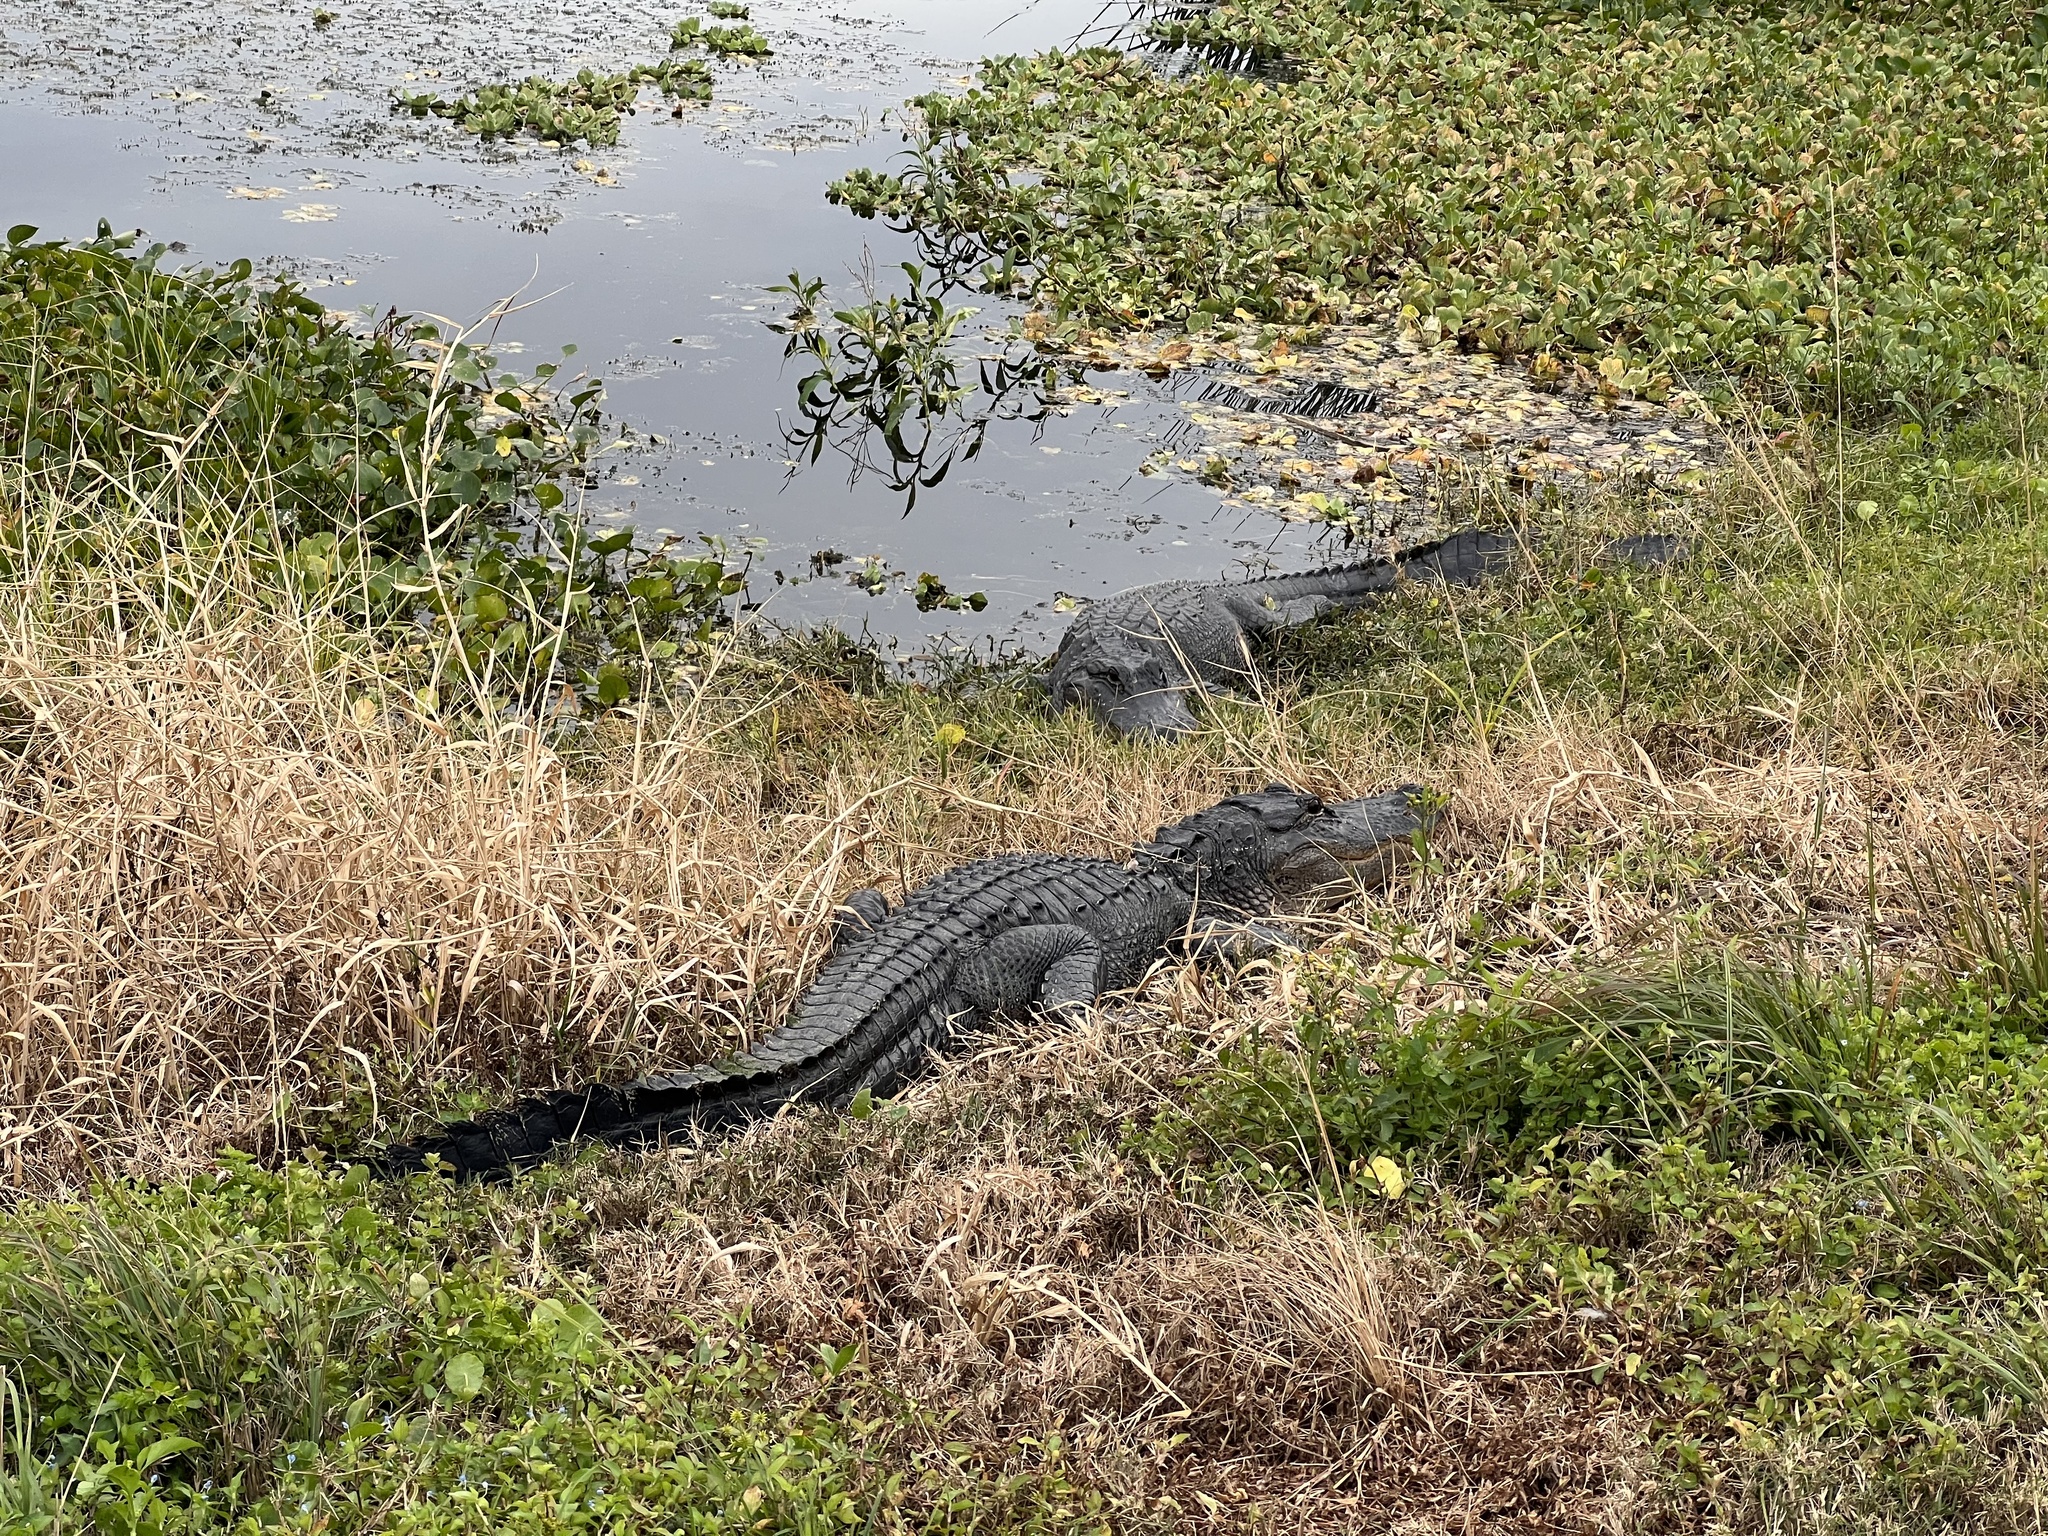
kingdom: Animalia
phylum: Chordata
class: Crocodylia
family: Alligatoridae
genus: Alligator
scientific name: Alligator mississippiensis
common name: American alligator
